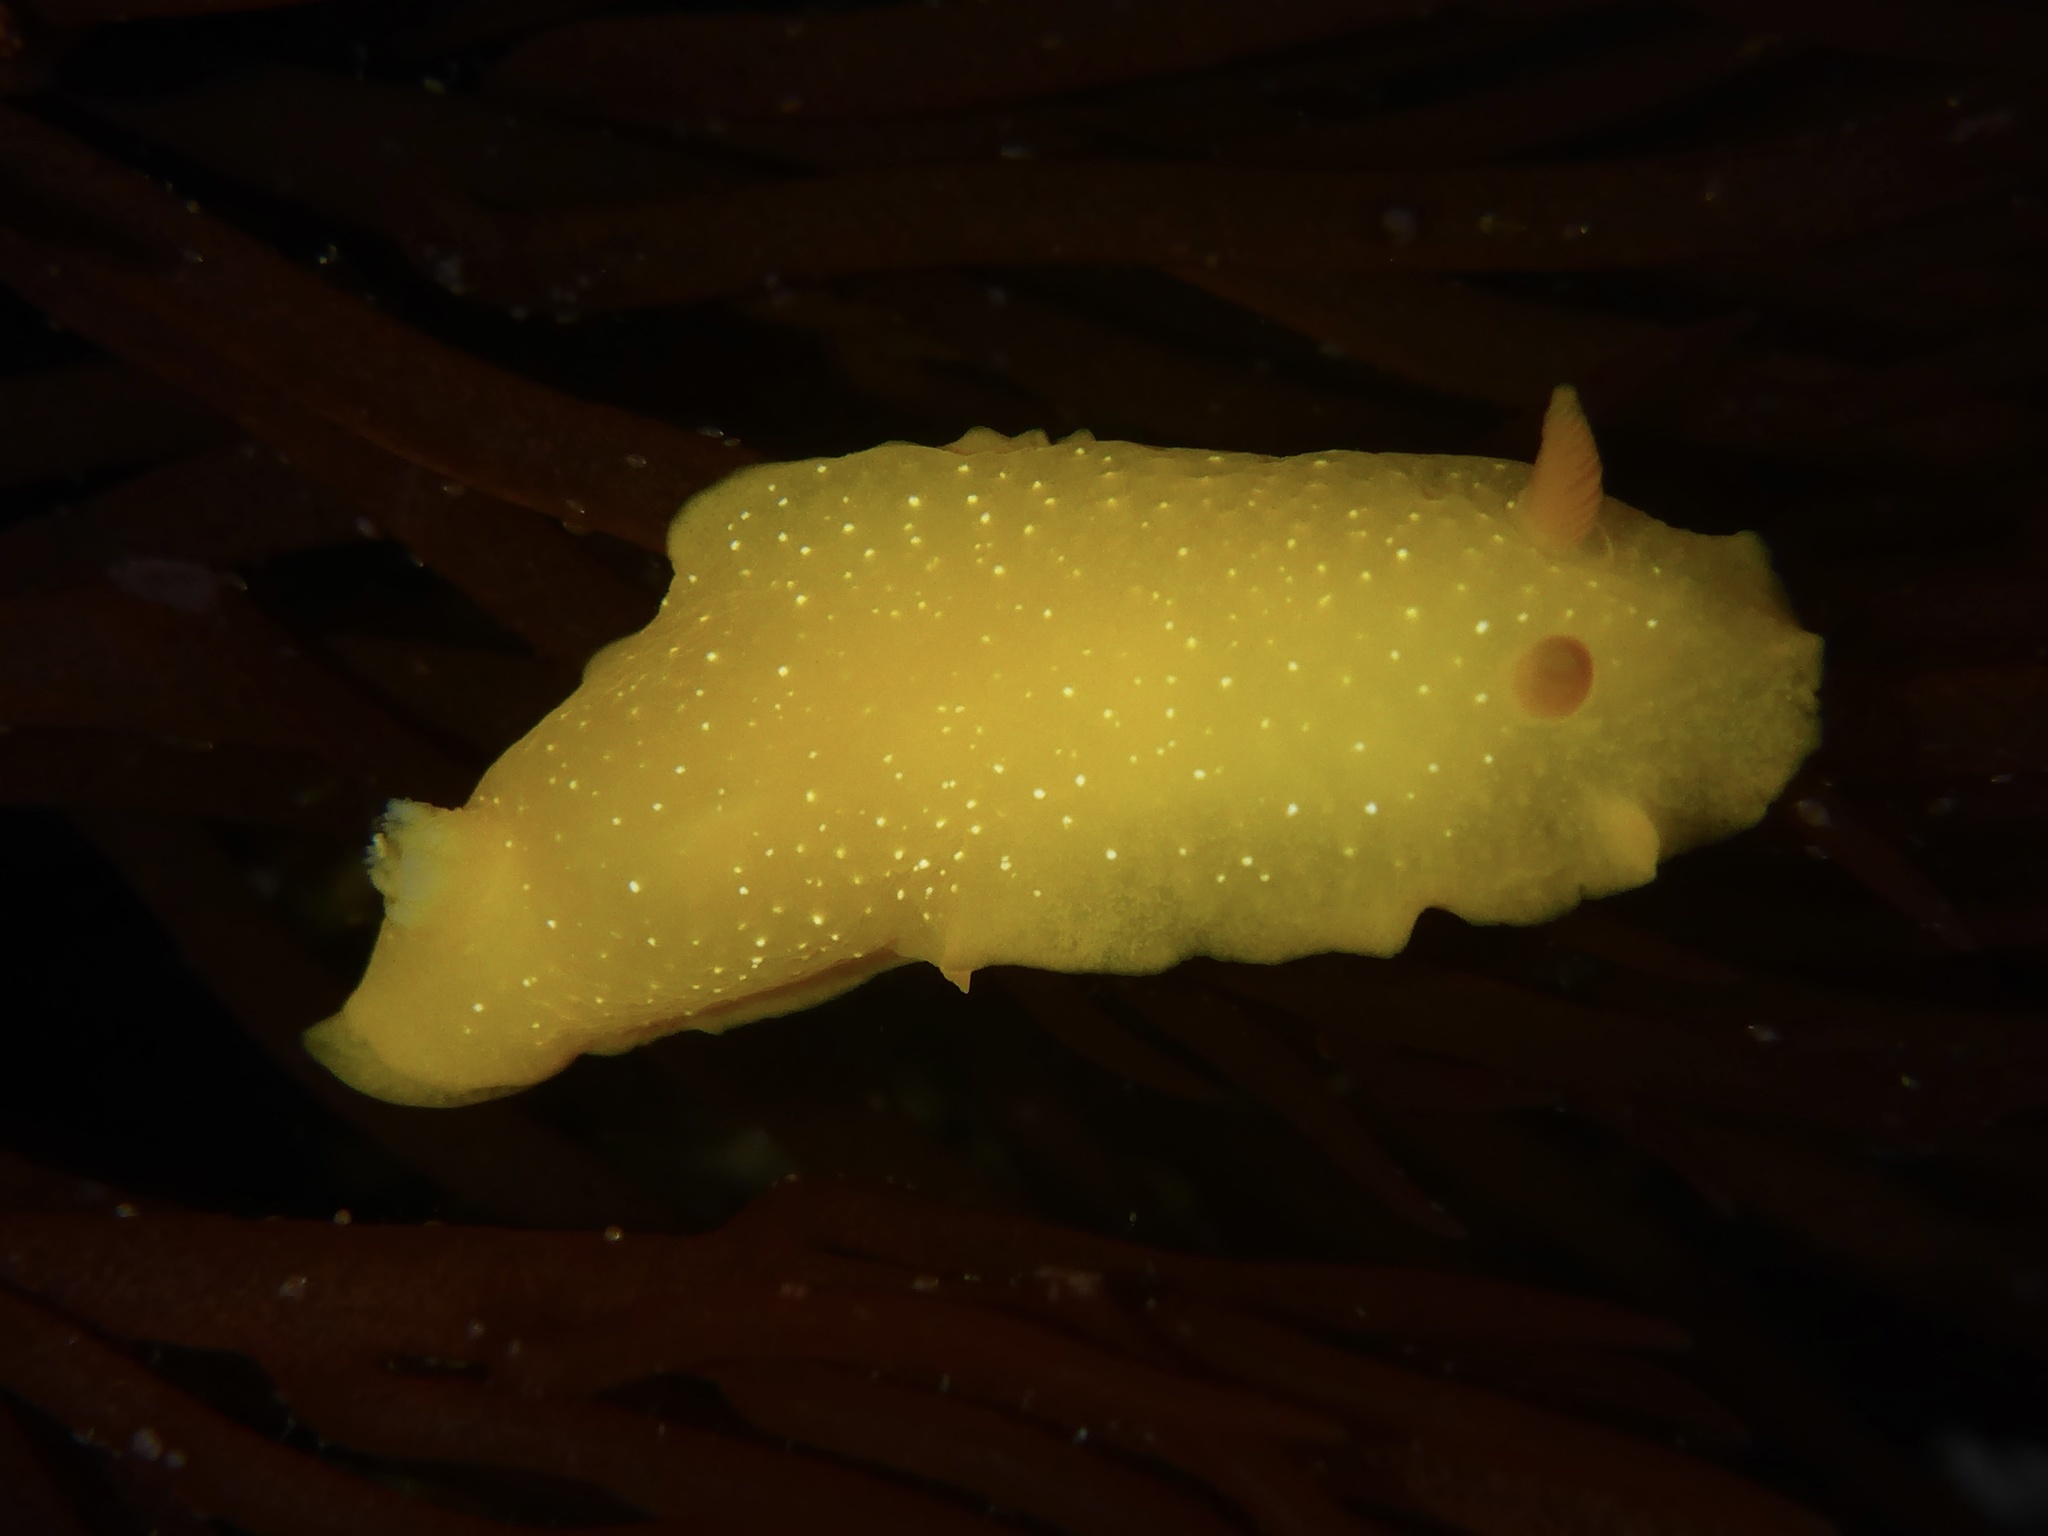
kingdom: Animalia
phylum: Mollusca
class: Gastropoda
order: Nudibranchia
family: Dendrodorididae
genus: Doriopsilla
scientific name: Doriopsilla fulva
